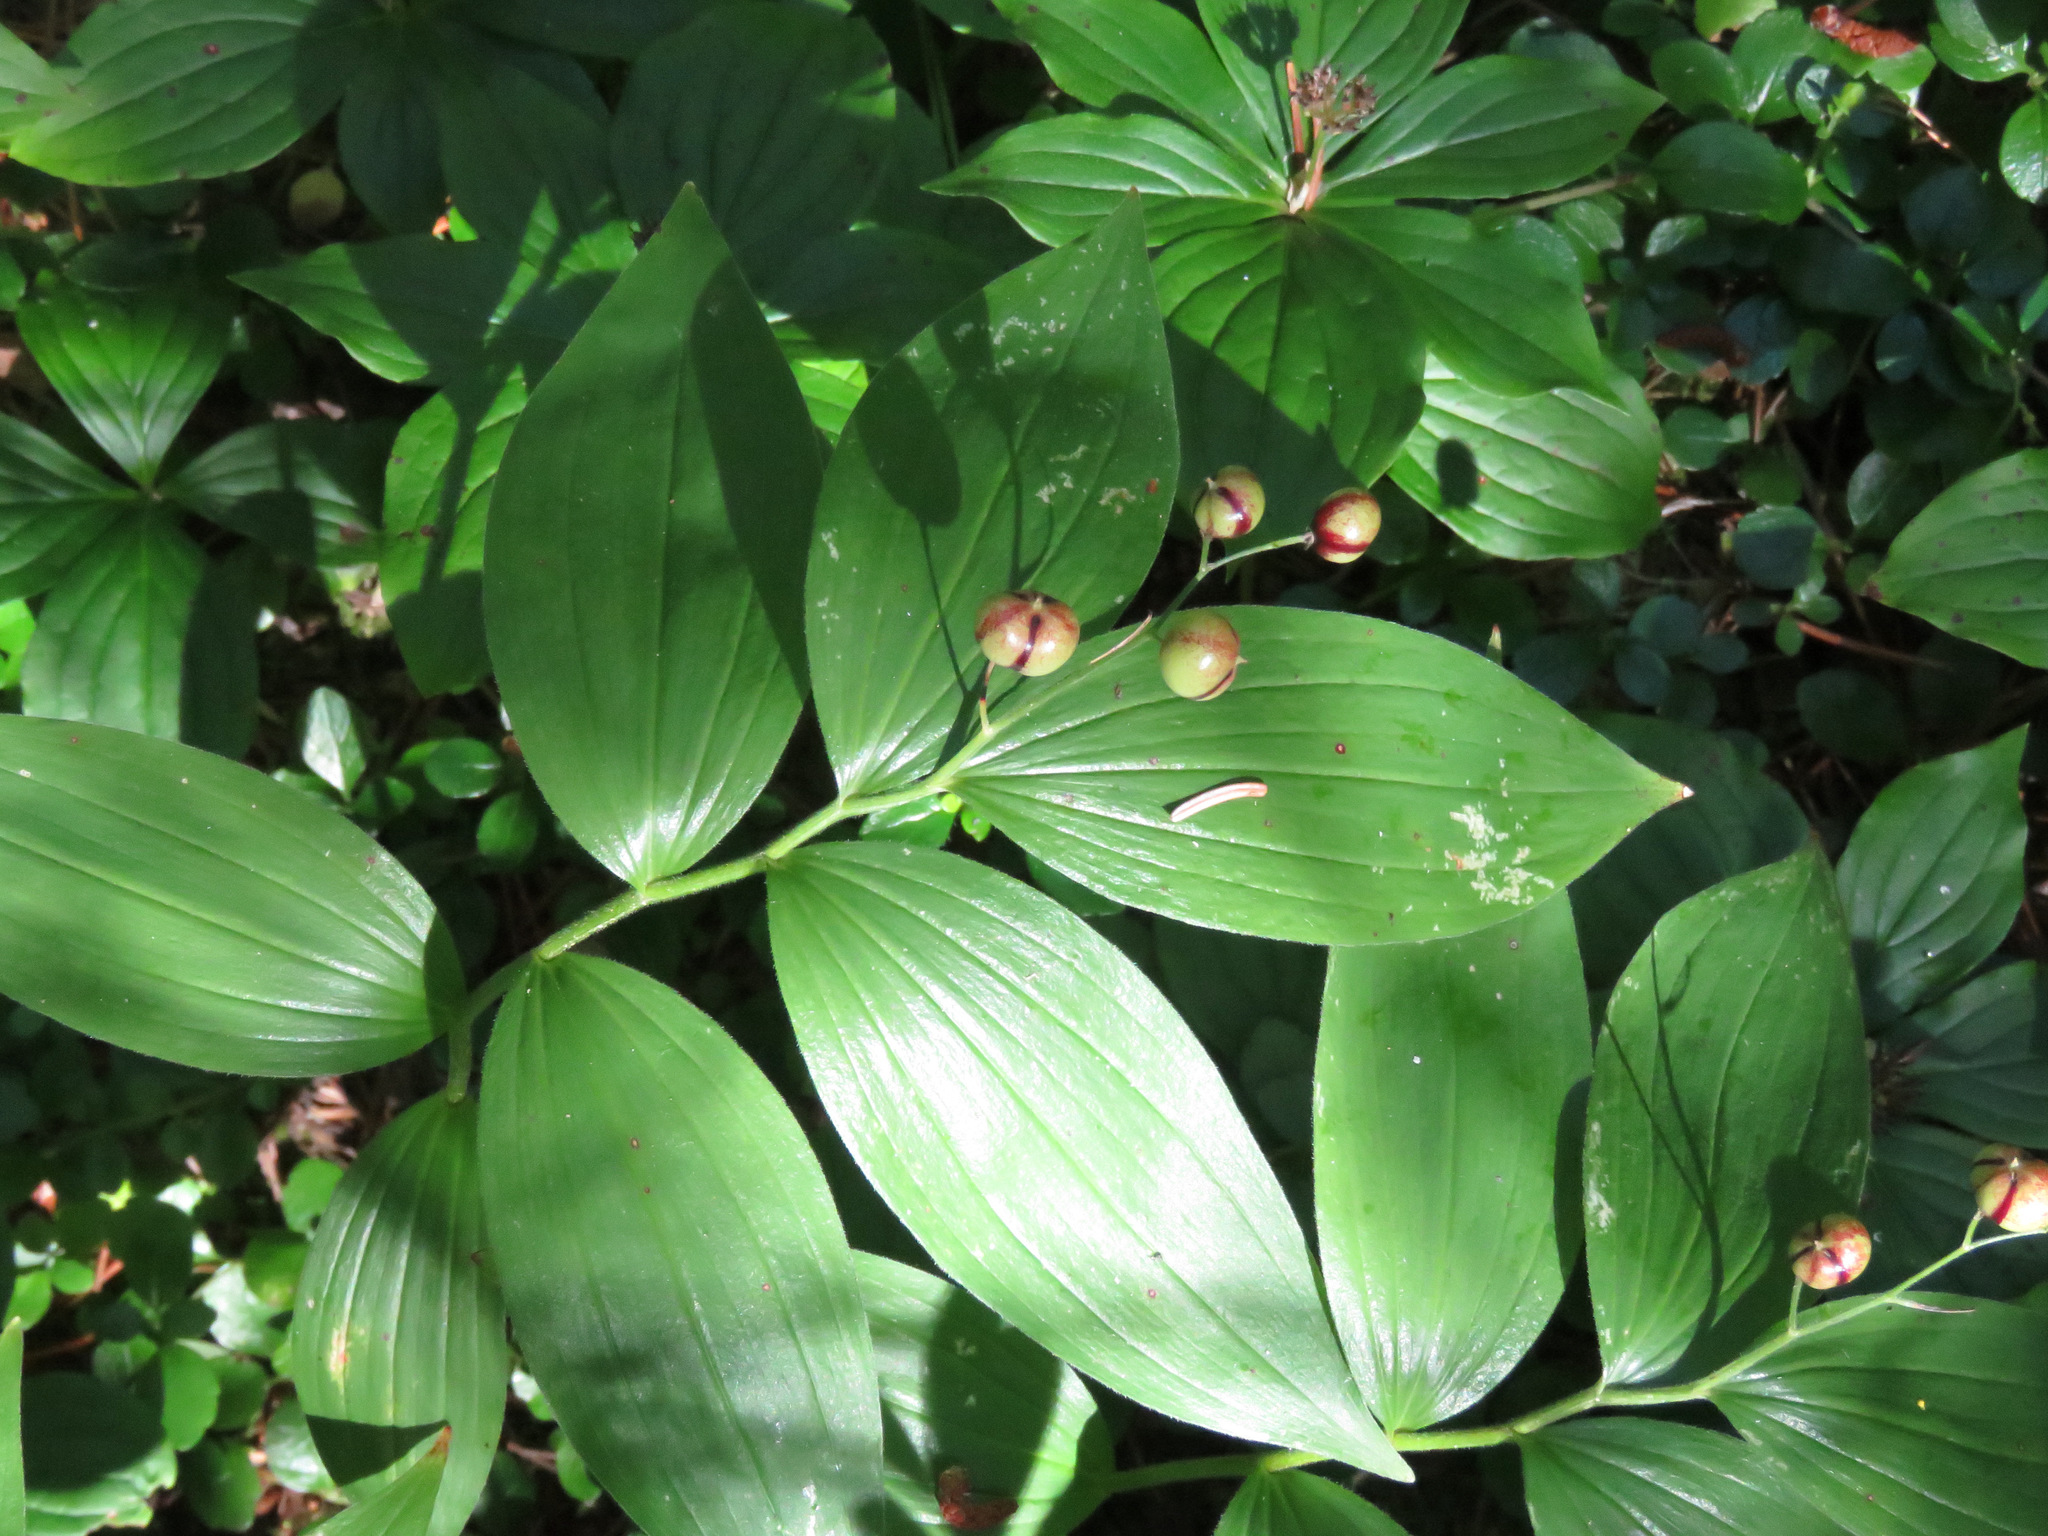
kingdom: Plantae
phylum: Tracheophyta
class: Liliopsida
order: Asparagales
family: Asparagaceae
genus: Maianthemum
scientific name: Maianthemum stellatum
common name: Little false solomon's seal
